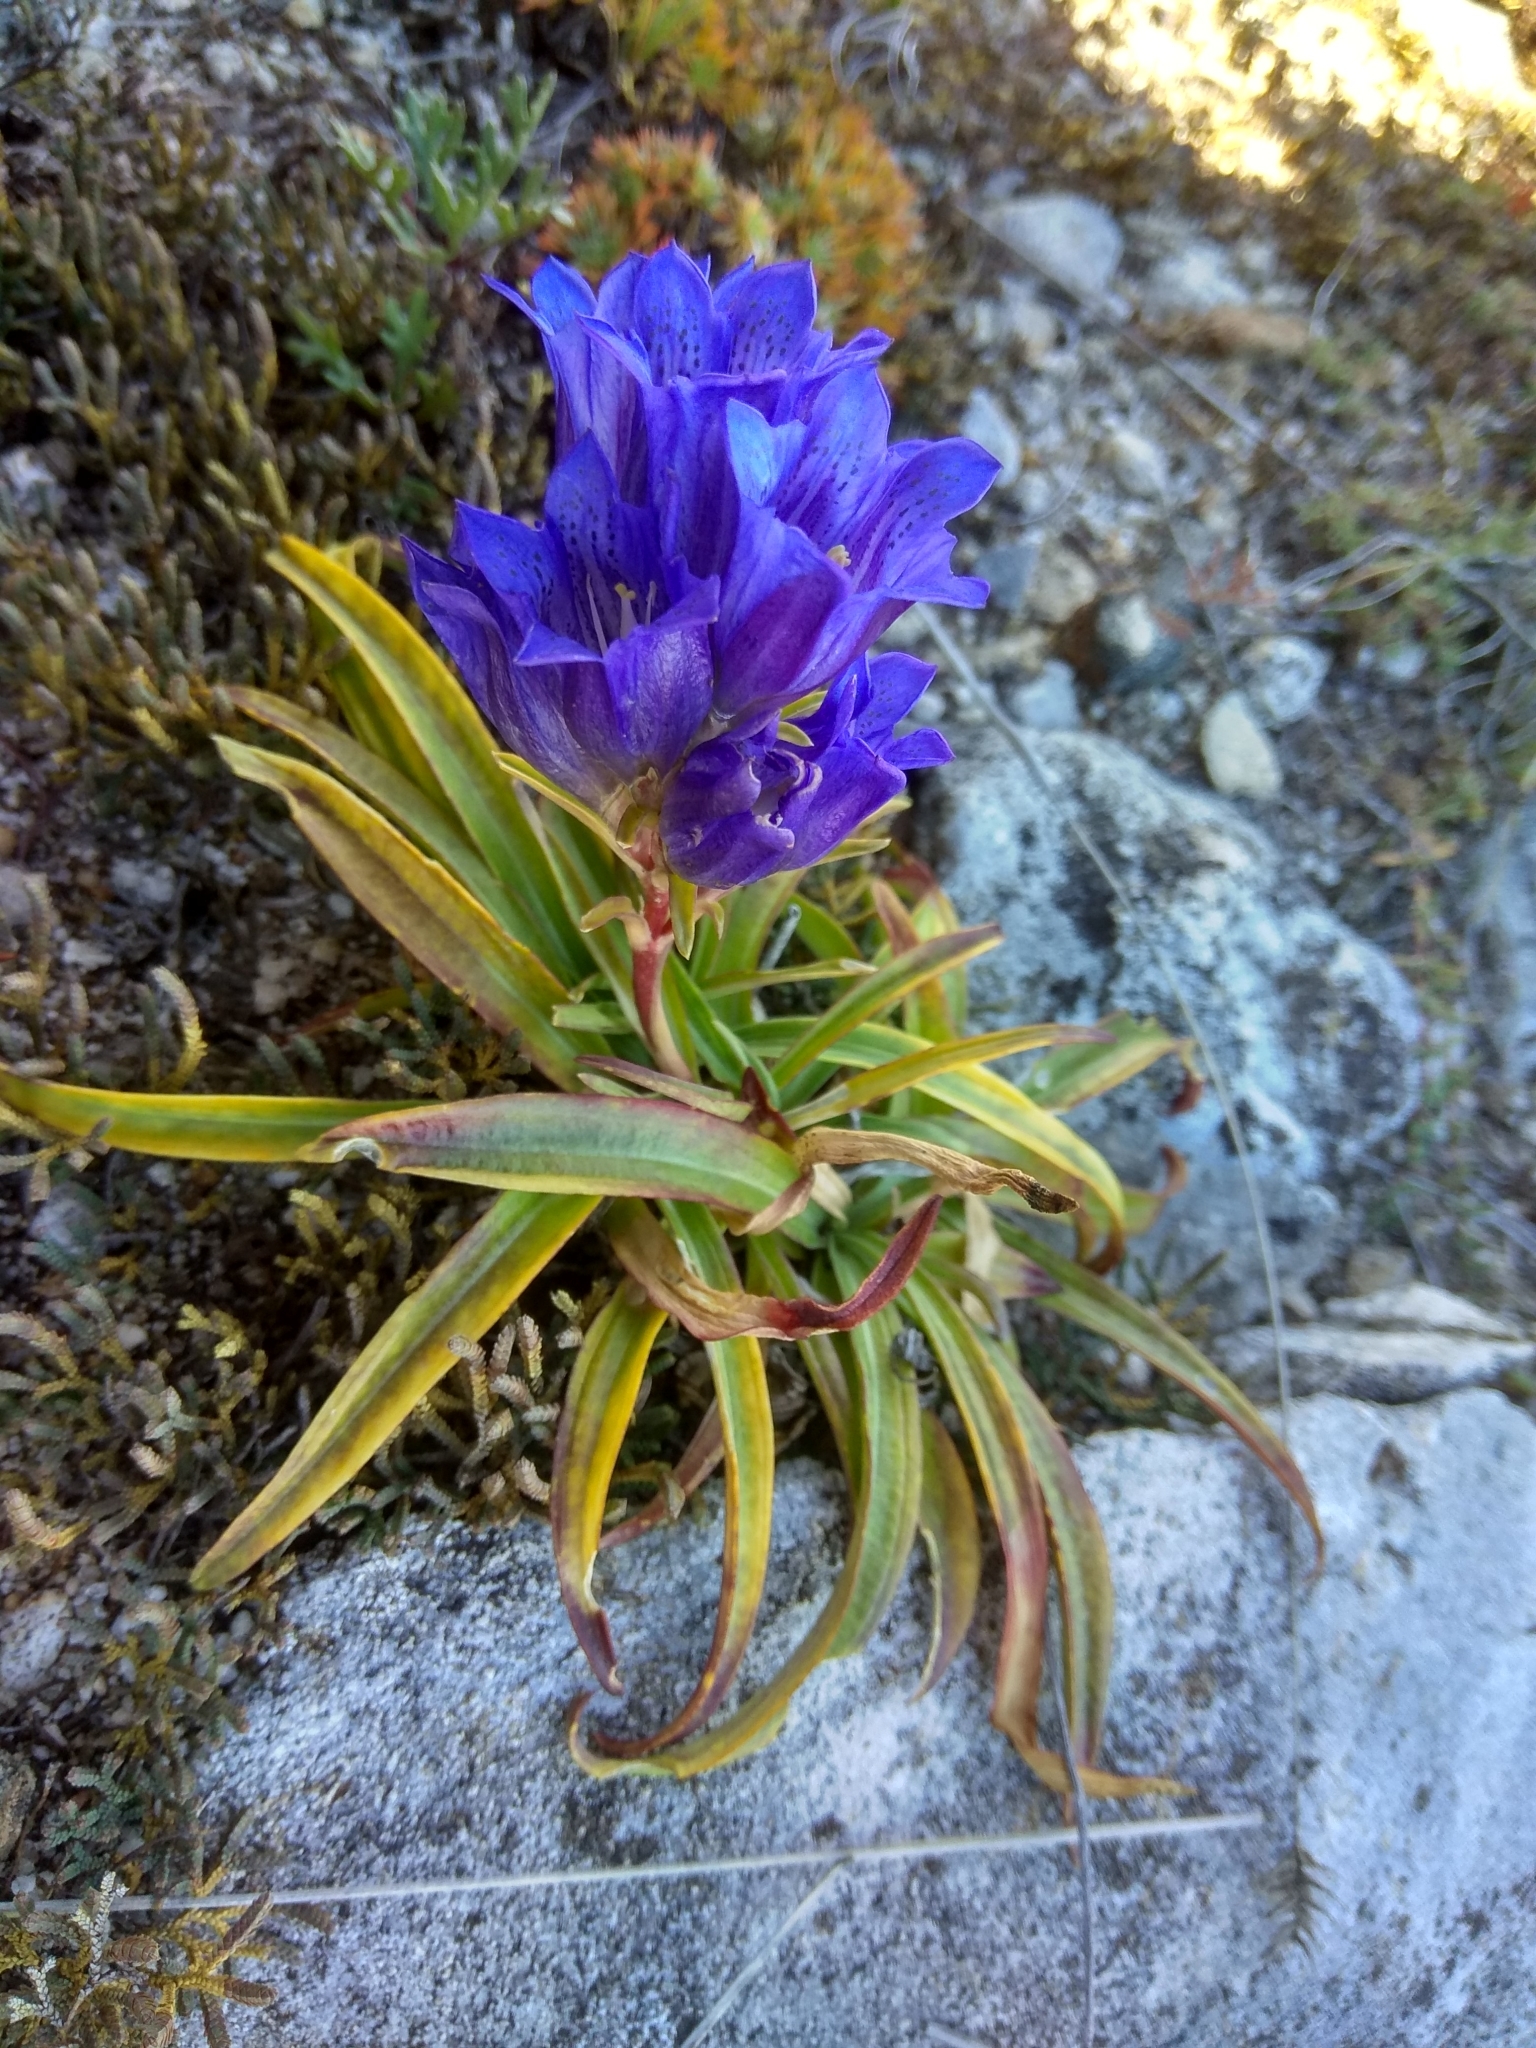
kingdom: Plantae
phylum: Tracheophyta
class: Magnoliopsida
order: Gentianales
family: Gentianaceae
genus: Gentiana
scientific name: Gentiana decumbens
